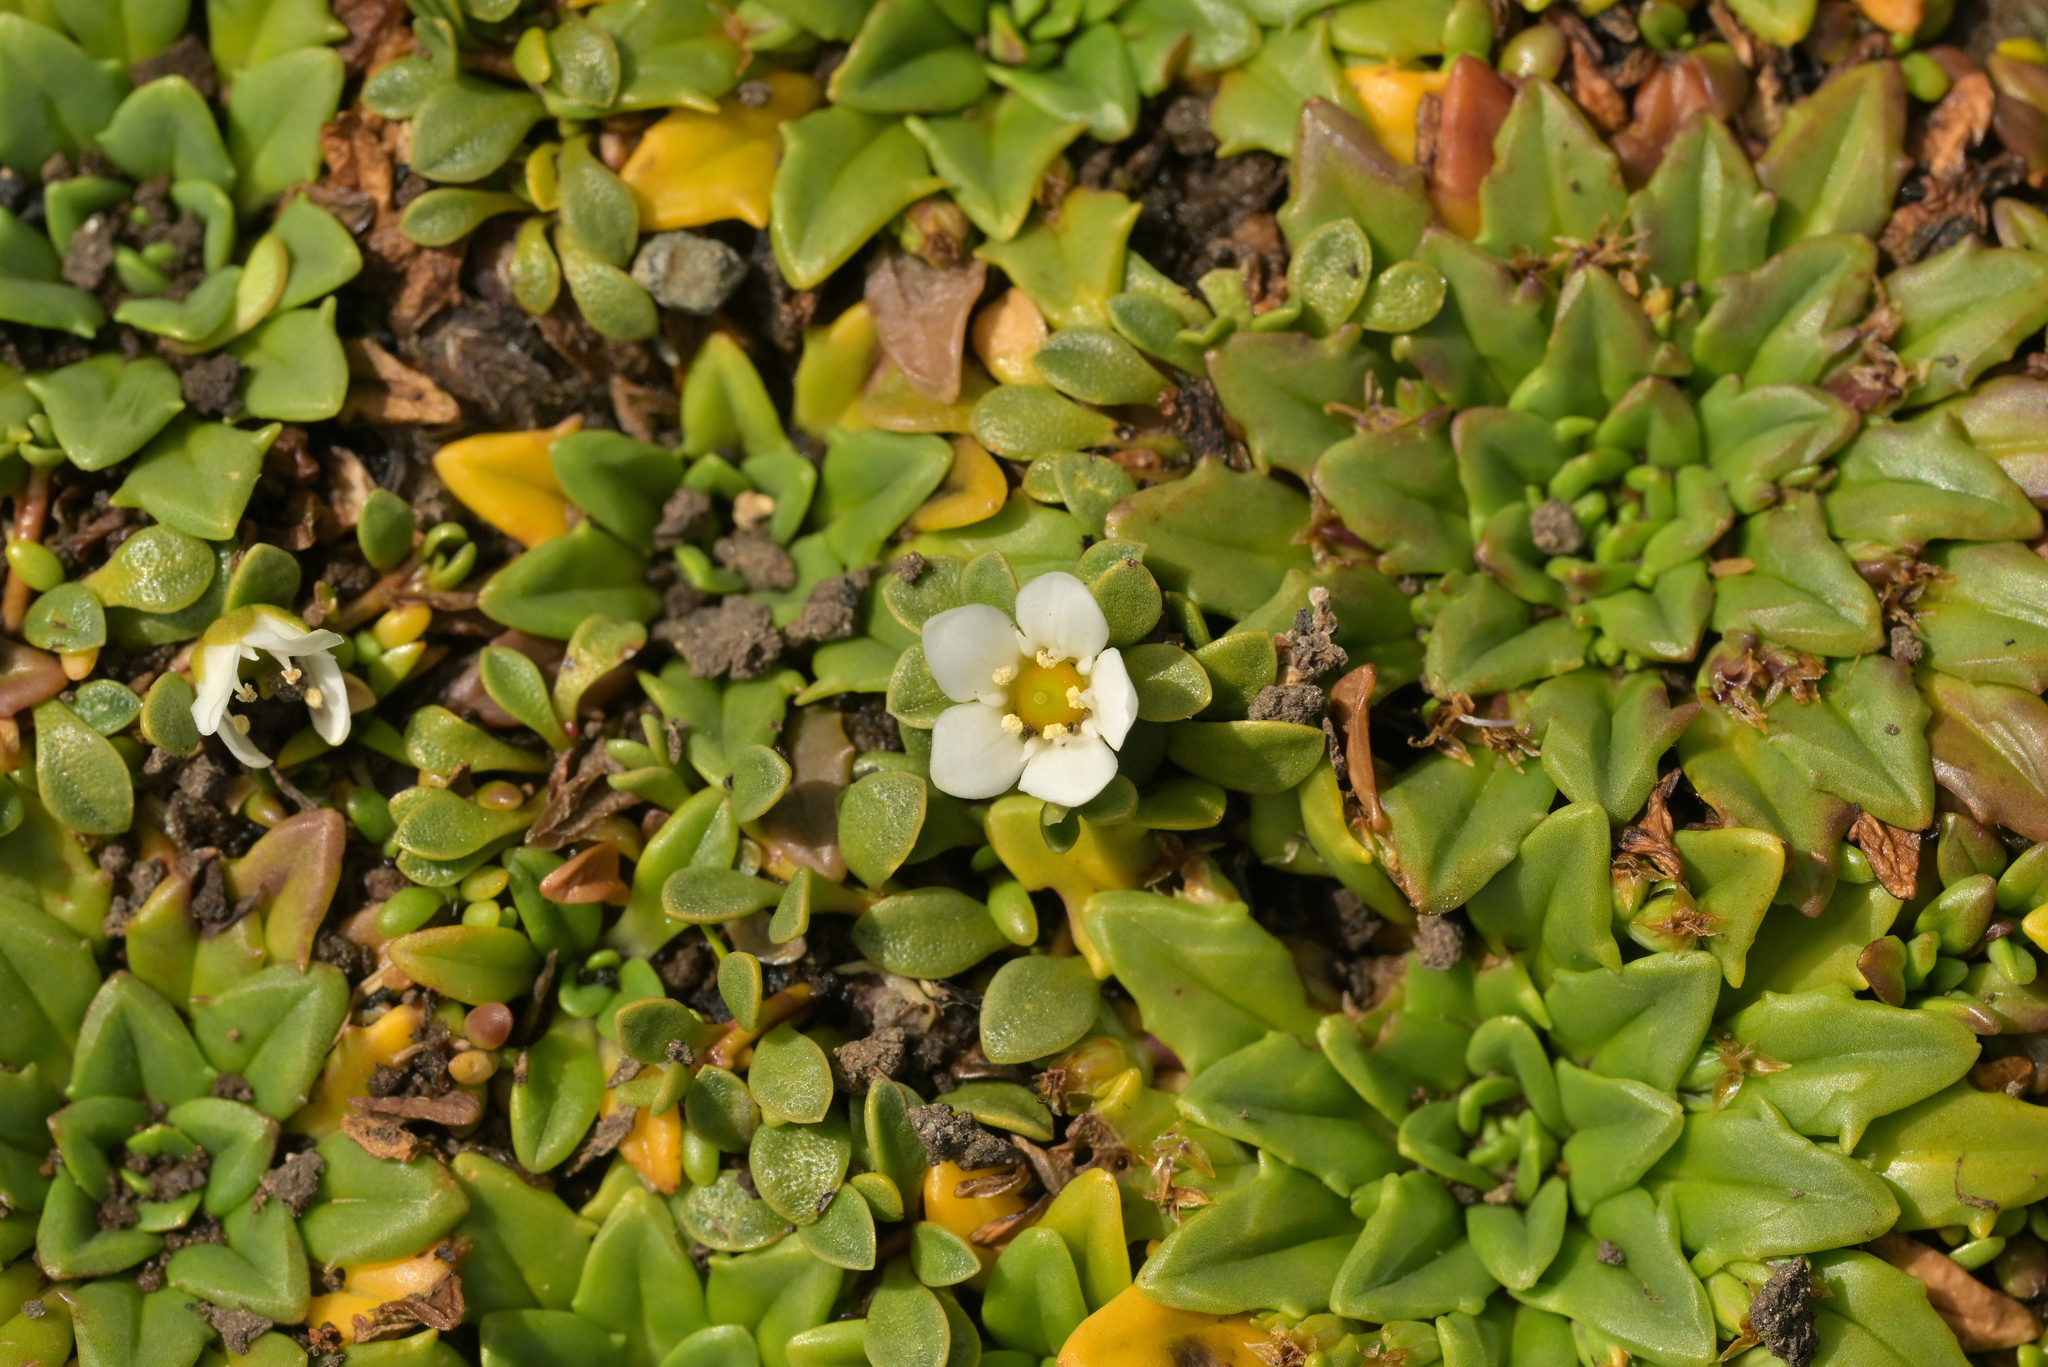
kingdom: Plantae
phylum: Tracheophyta
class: Magnoliopsida
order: Ericales
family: Primulaceae
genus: Samolus
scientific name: Samolus repens
